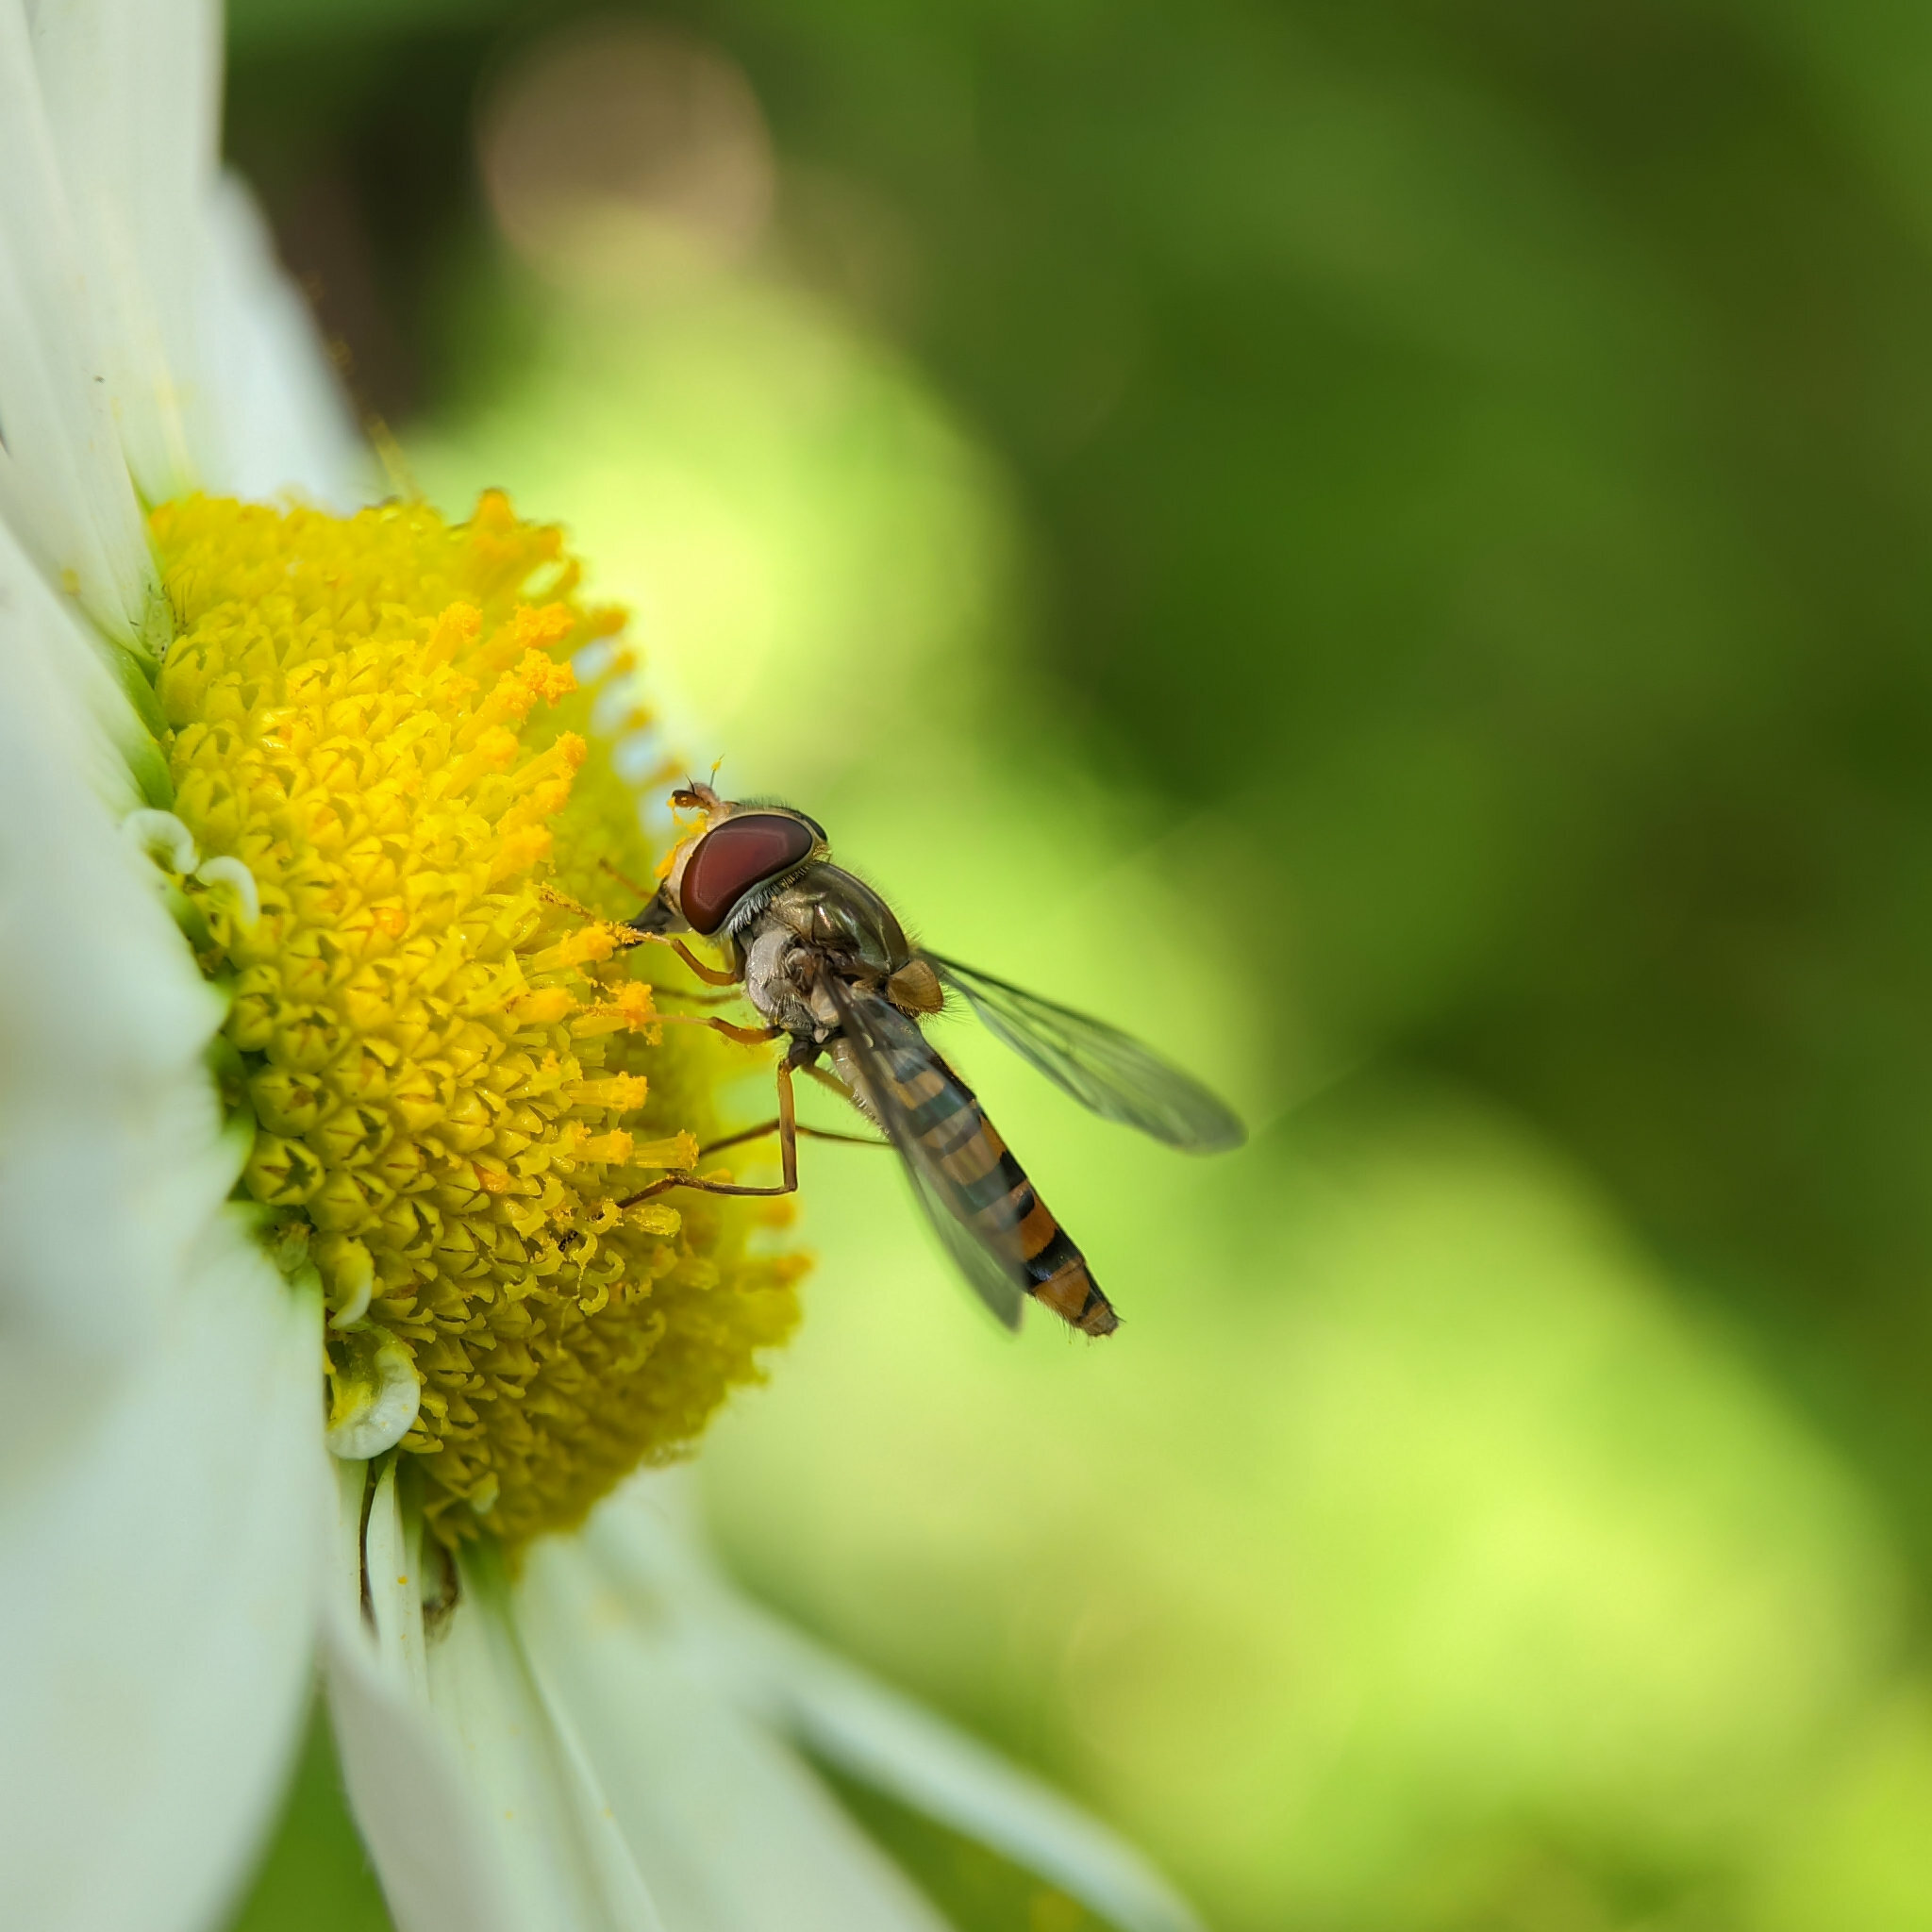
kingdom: Animalia
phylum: Arthropoda
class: Insecta
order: Diptera
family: Syrphidae
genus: Episyrphus
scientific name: Episyrphus balteatus
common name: Marmalade hoverfly
